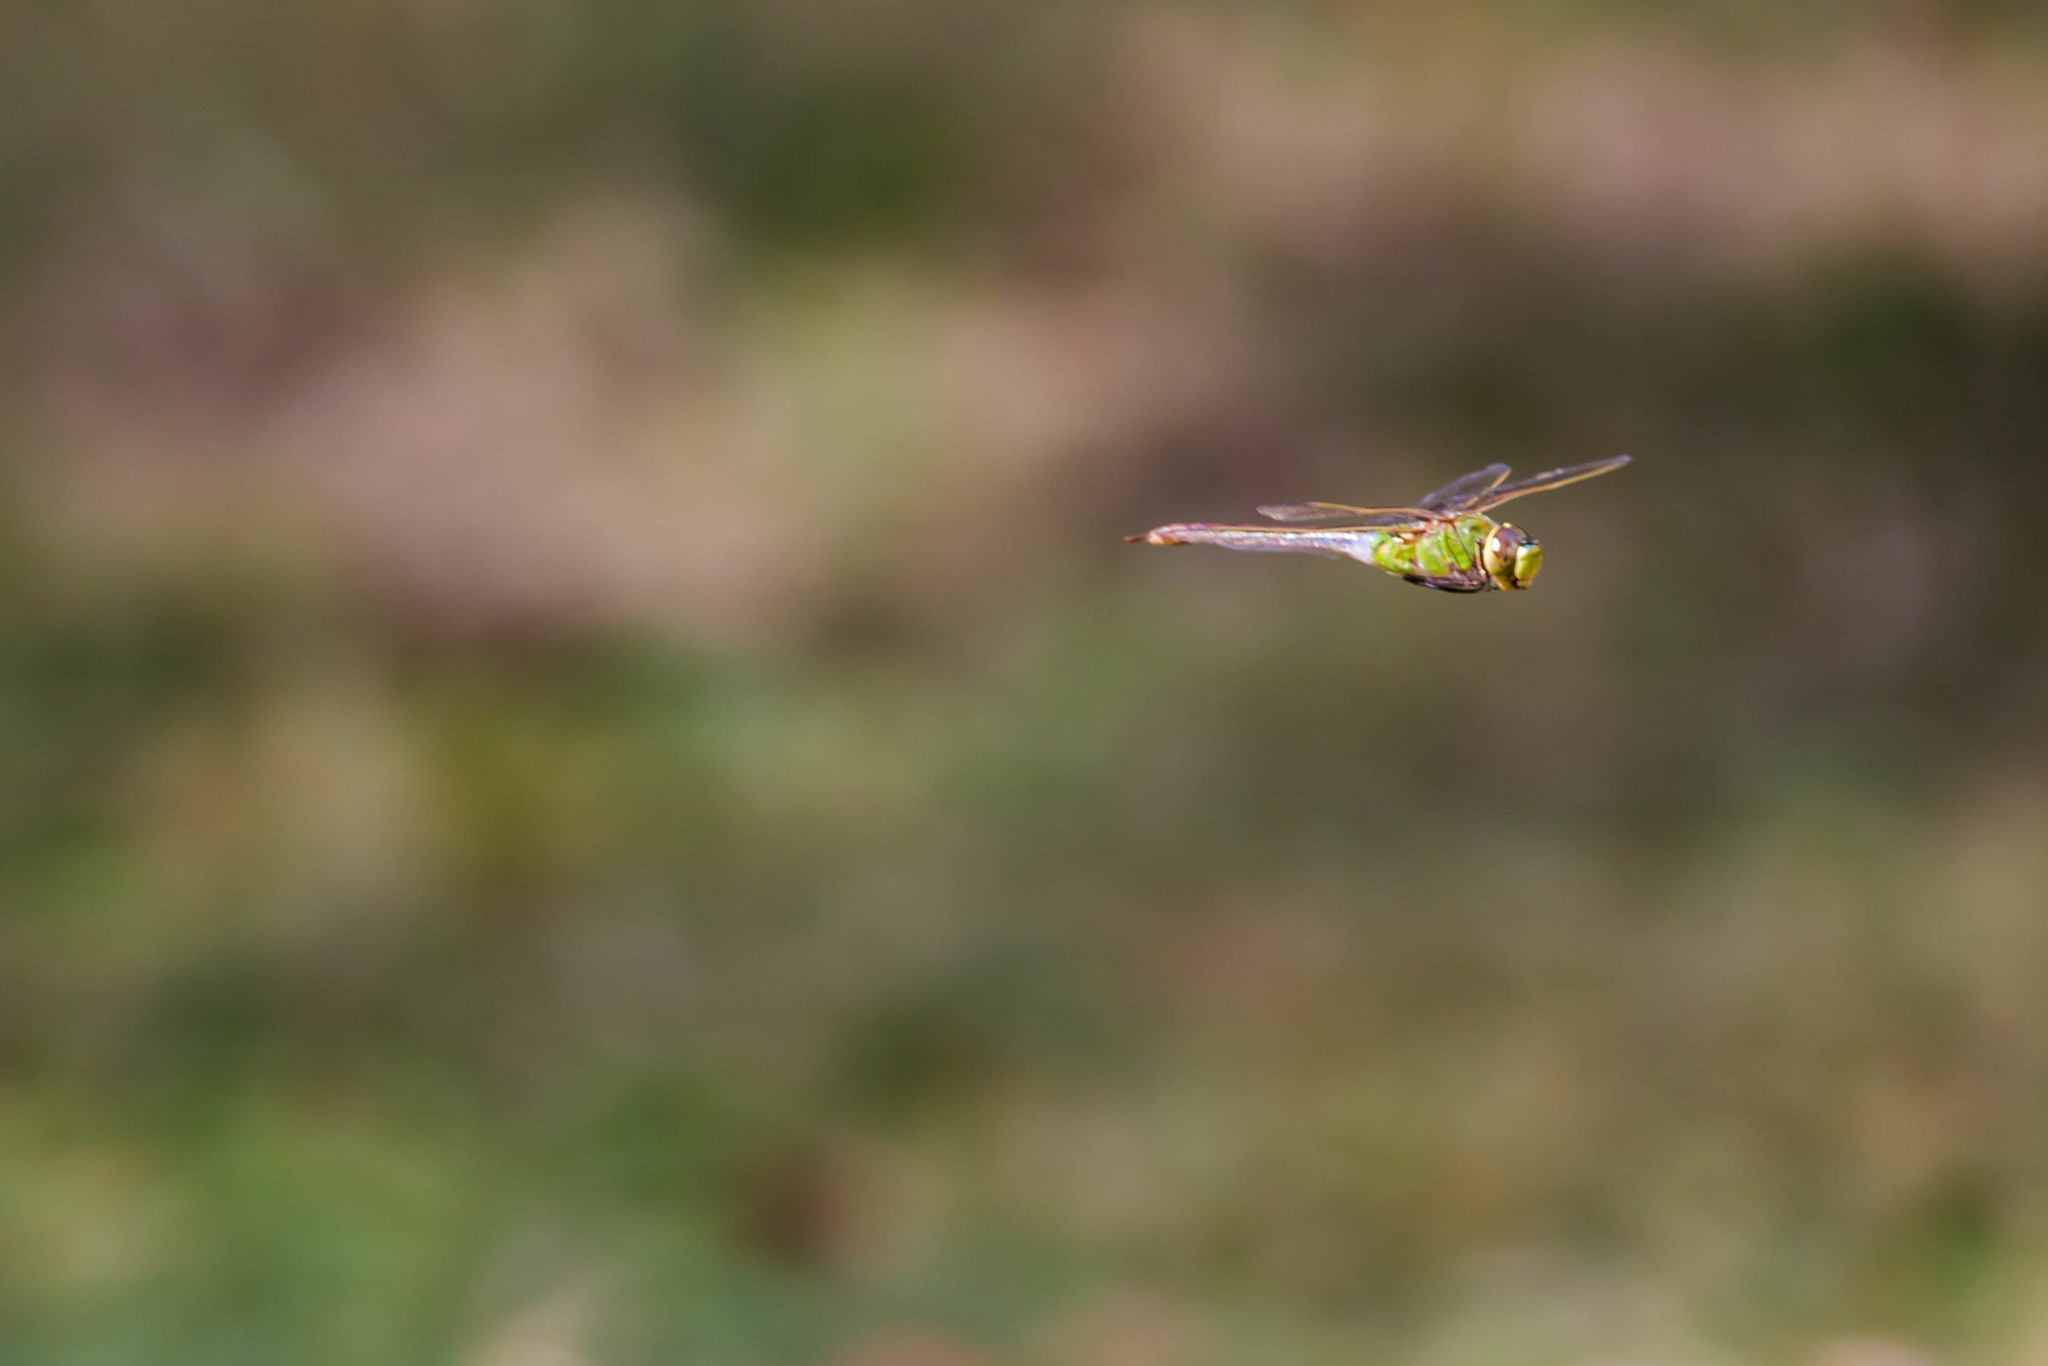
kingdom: Animalia
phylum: Arthropoda
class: Insecta
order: Odonata
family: Aeshnidae
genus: Anax
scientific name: Anax junius
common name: Common green darner
